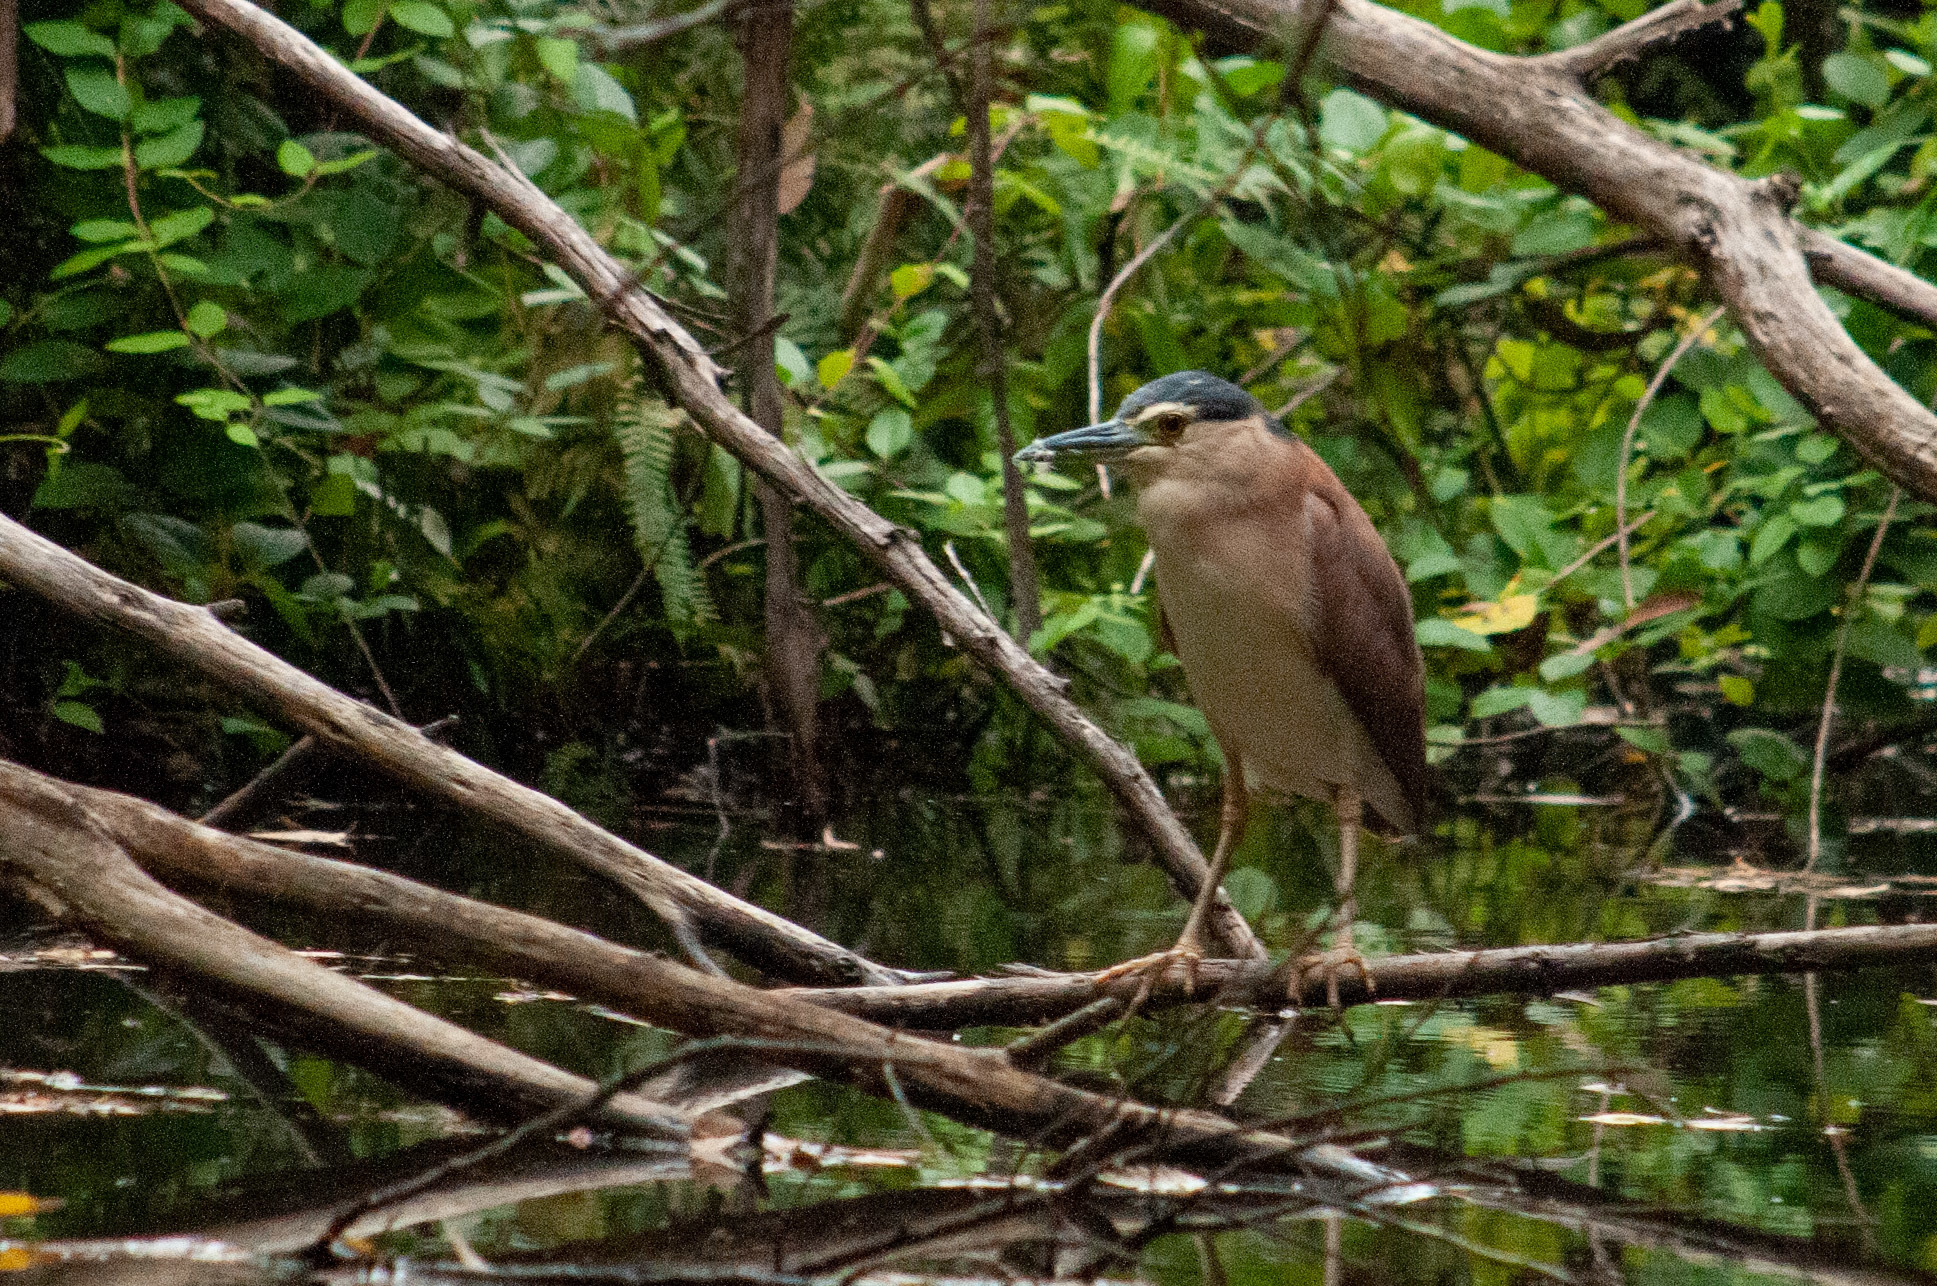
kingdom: Animalia
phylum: Chordata
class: Aves
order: Pelecaniformes
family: Ardeidae
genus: Nycticorax
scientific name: Nycticorax caledonicus
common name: Rufous night-heron
